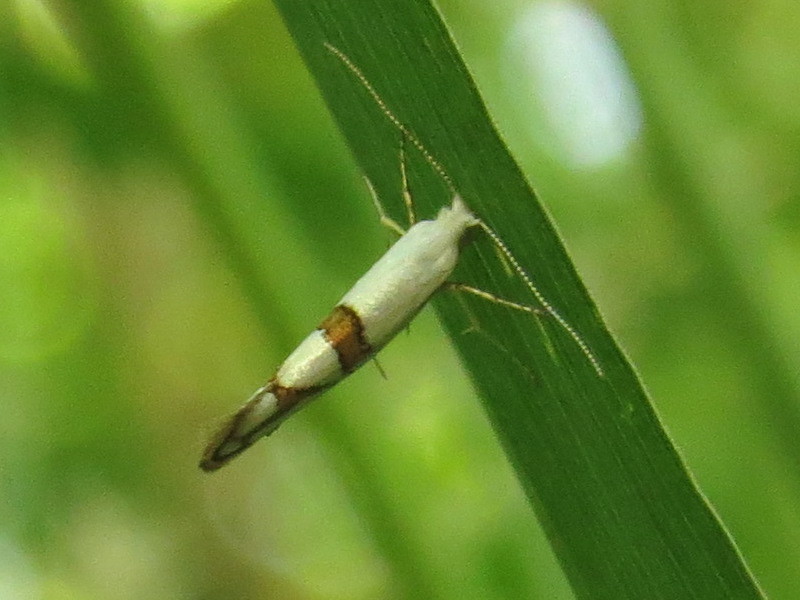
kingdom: Animalia
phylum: Arthropoda
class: Insecta
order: Lepidoptera
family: Argyresthiidae
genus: Argyresthia
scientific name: Argyresthia oreasella
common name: Cherry shoot borer moth
